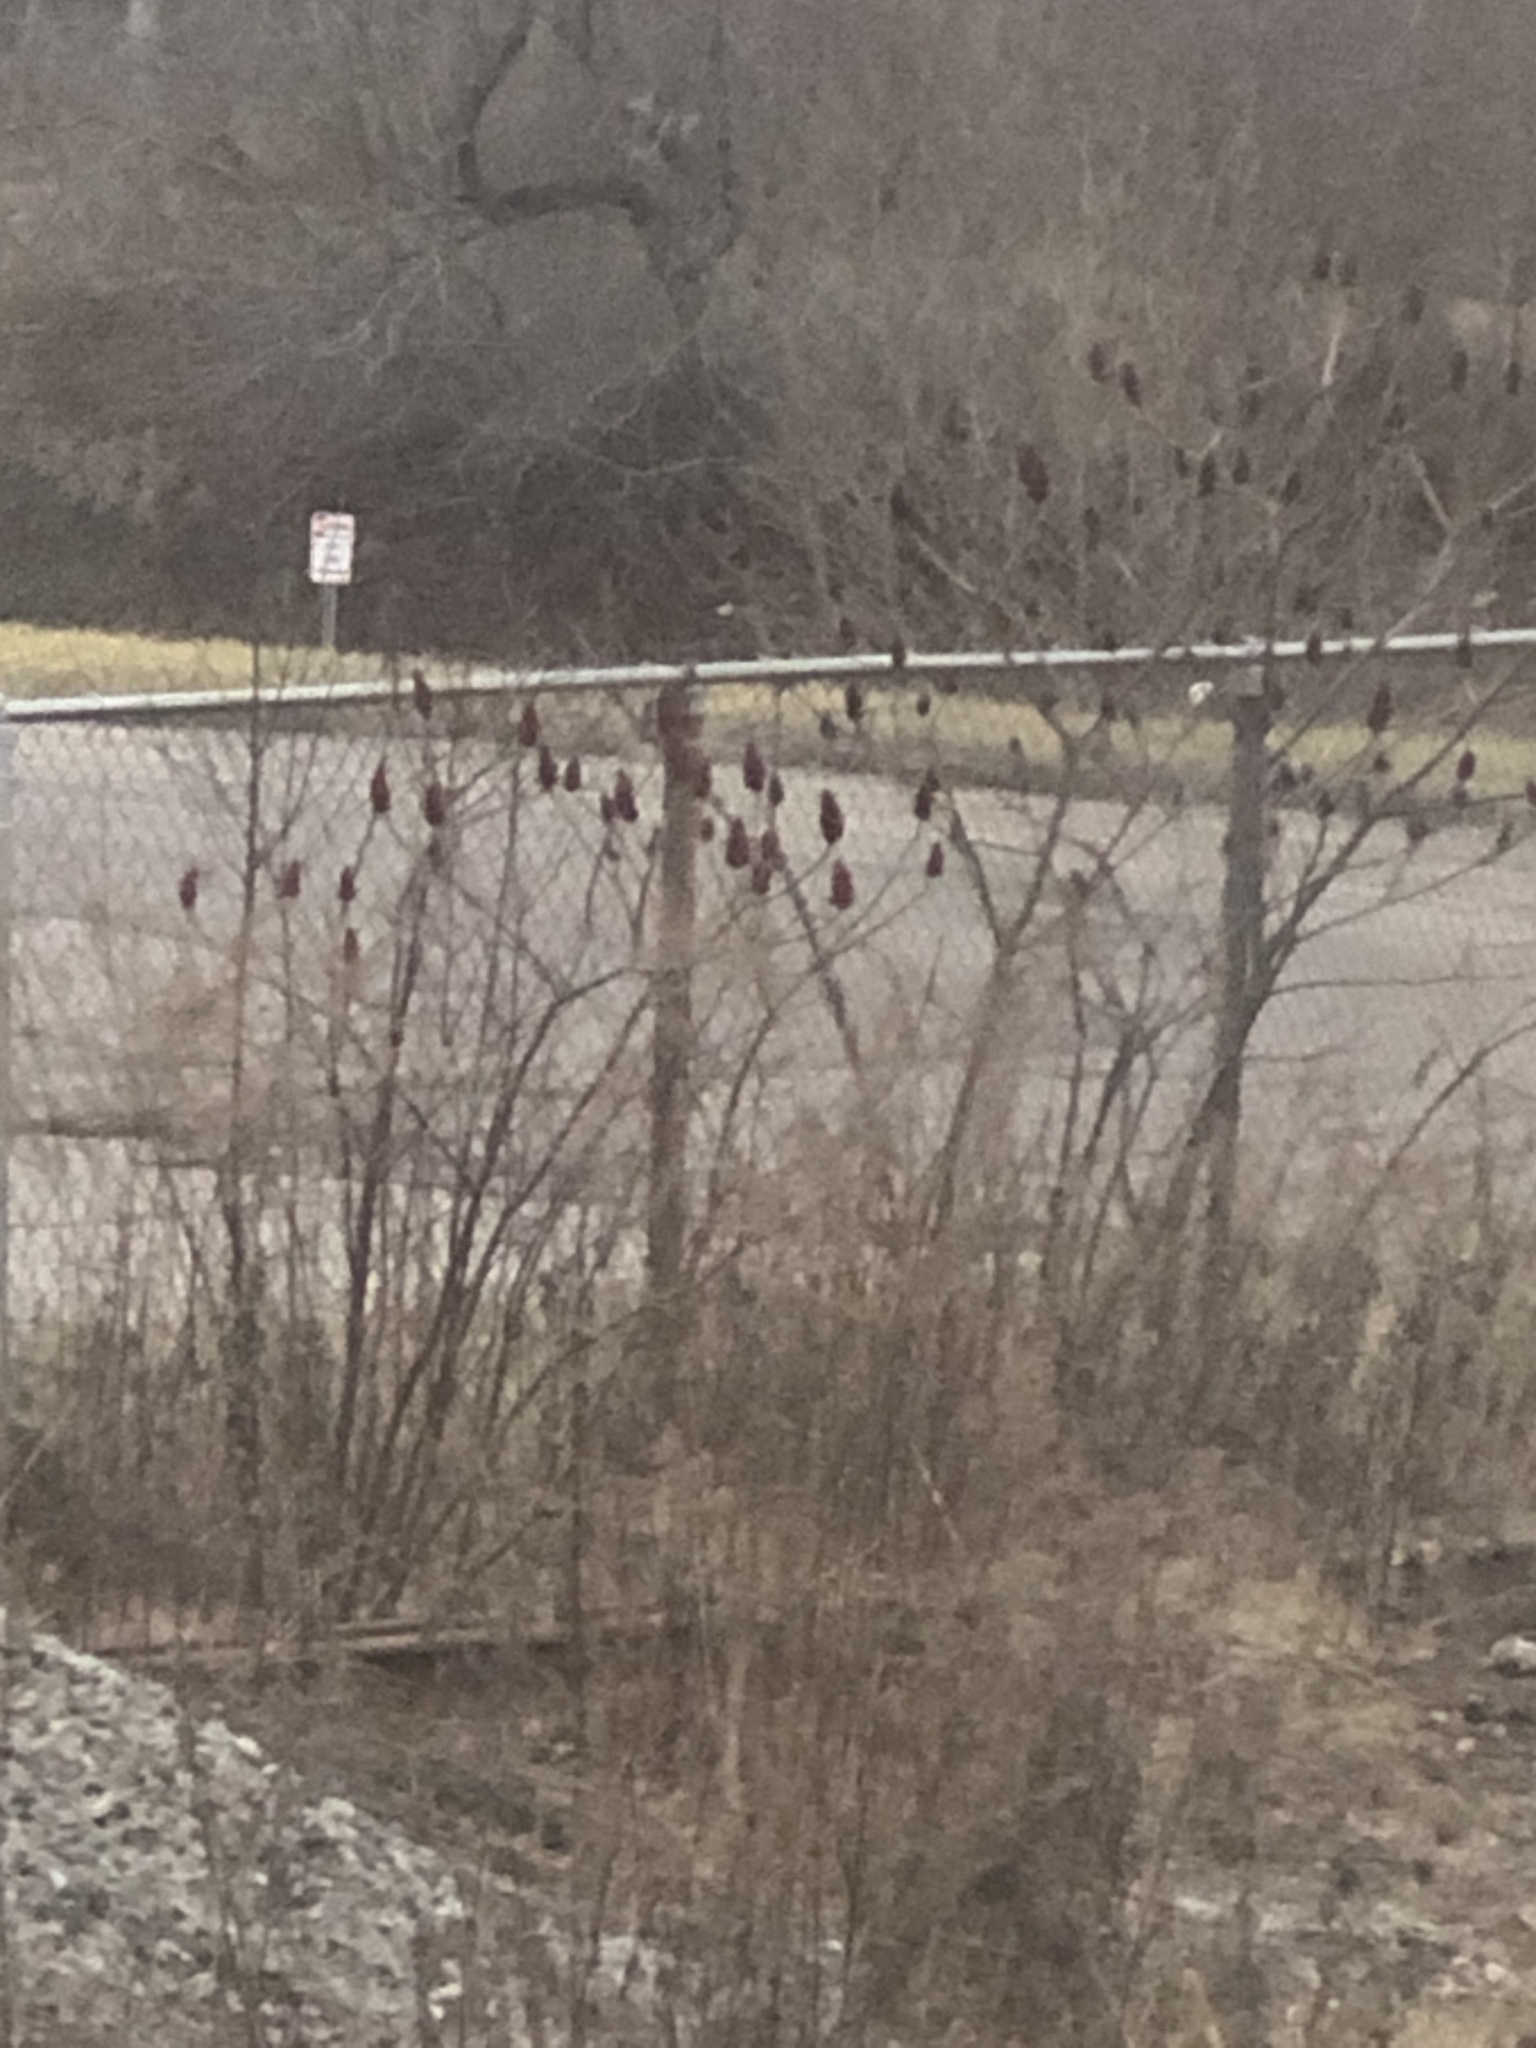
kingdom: Plantae
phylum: Tracheophyta
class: Magnoliopsida
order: Sapindales
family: Anacardiaceae
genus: Rhus
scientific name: Rhus typhina
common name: Staghorn sumac
